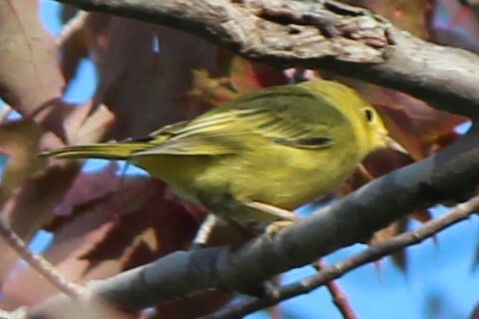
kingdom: Animalia
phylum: Chordata
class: Aves
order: Passeriformes
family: Parulidae
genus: Setophaga
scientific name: Setophaga petechia
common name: Yellow warbler
